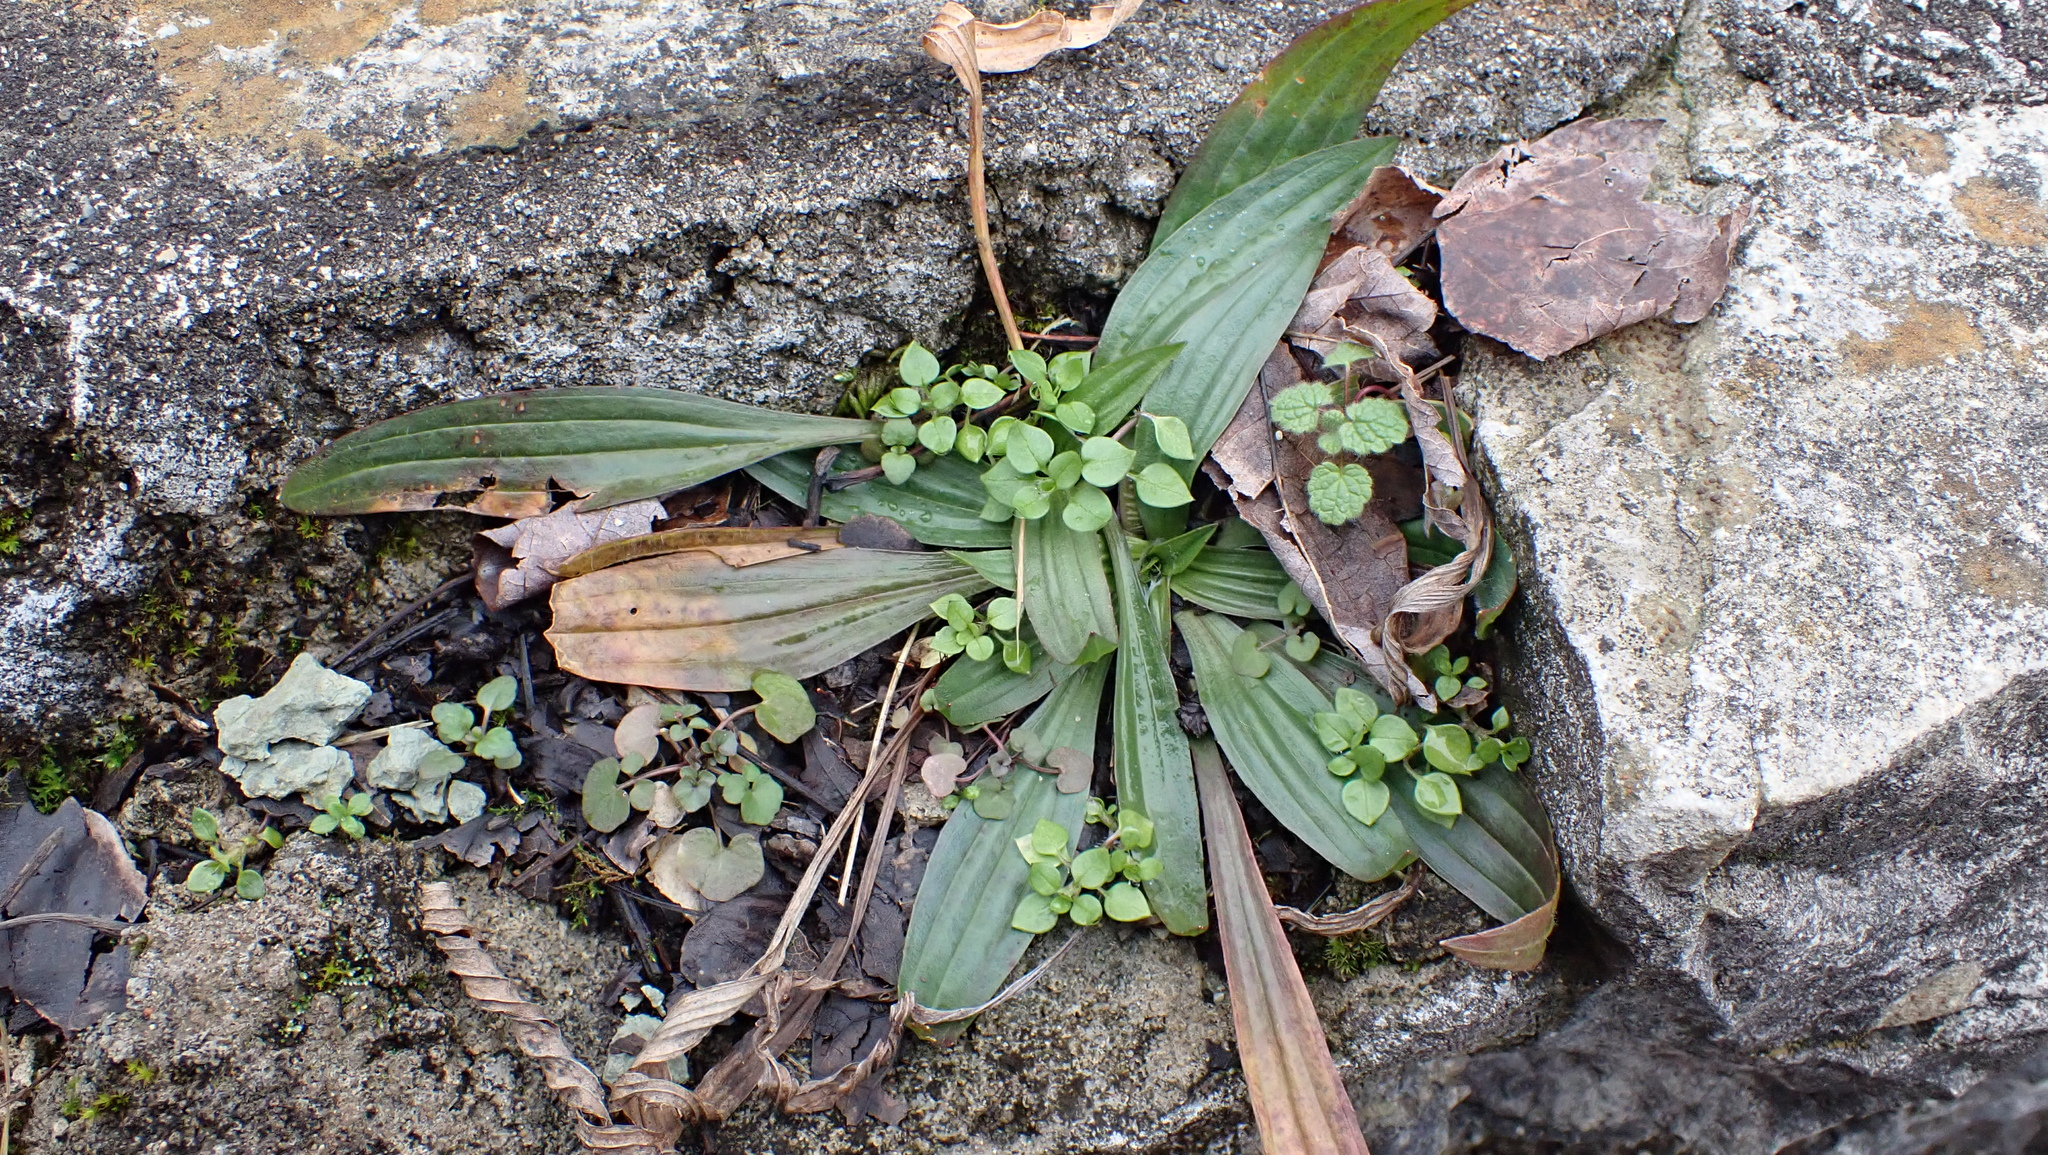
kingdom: Plantae
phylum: Tracheophyta
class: Magnoliopsida
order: Lamiales
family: Plantaginaceae
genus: Plantago
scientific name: Plantago lanceolata
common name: Ribwort plantain
